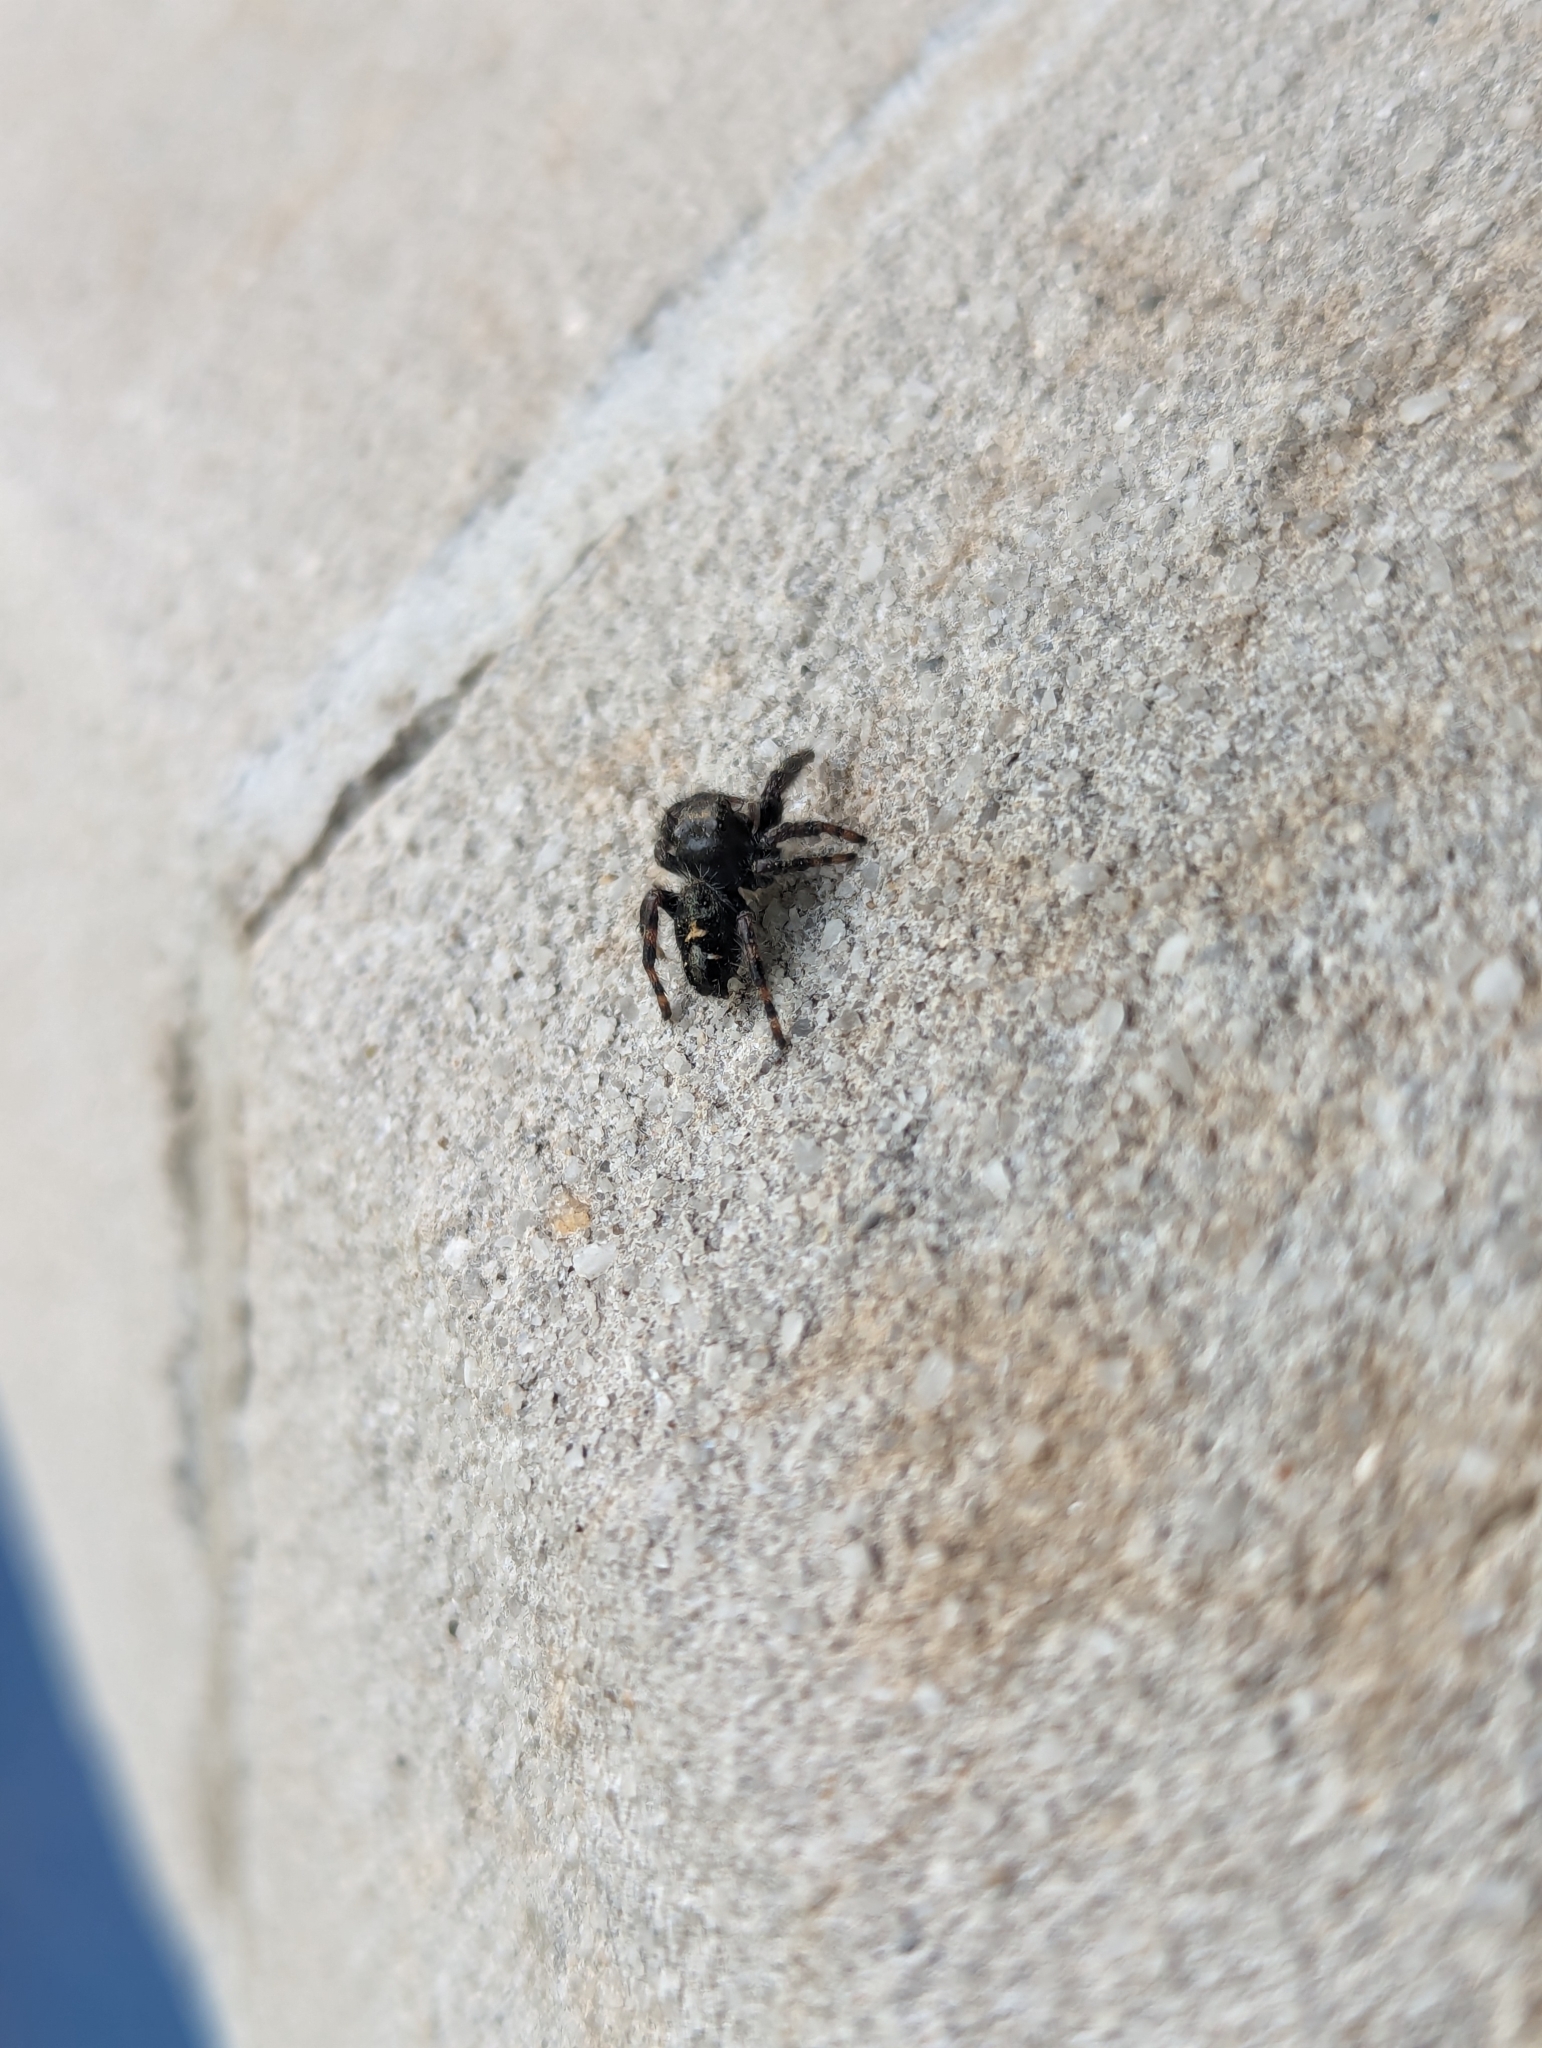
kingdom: Animalia
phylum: Arthropoda
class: Arachnida
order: Araneae
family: Salticidae
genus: Phidippus
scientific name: Phidippus audax
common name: Bold jumper
